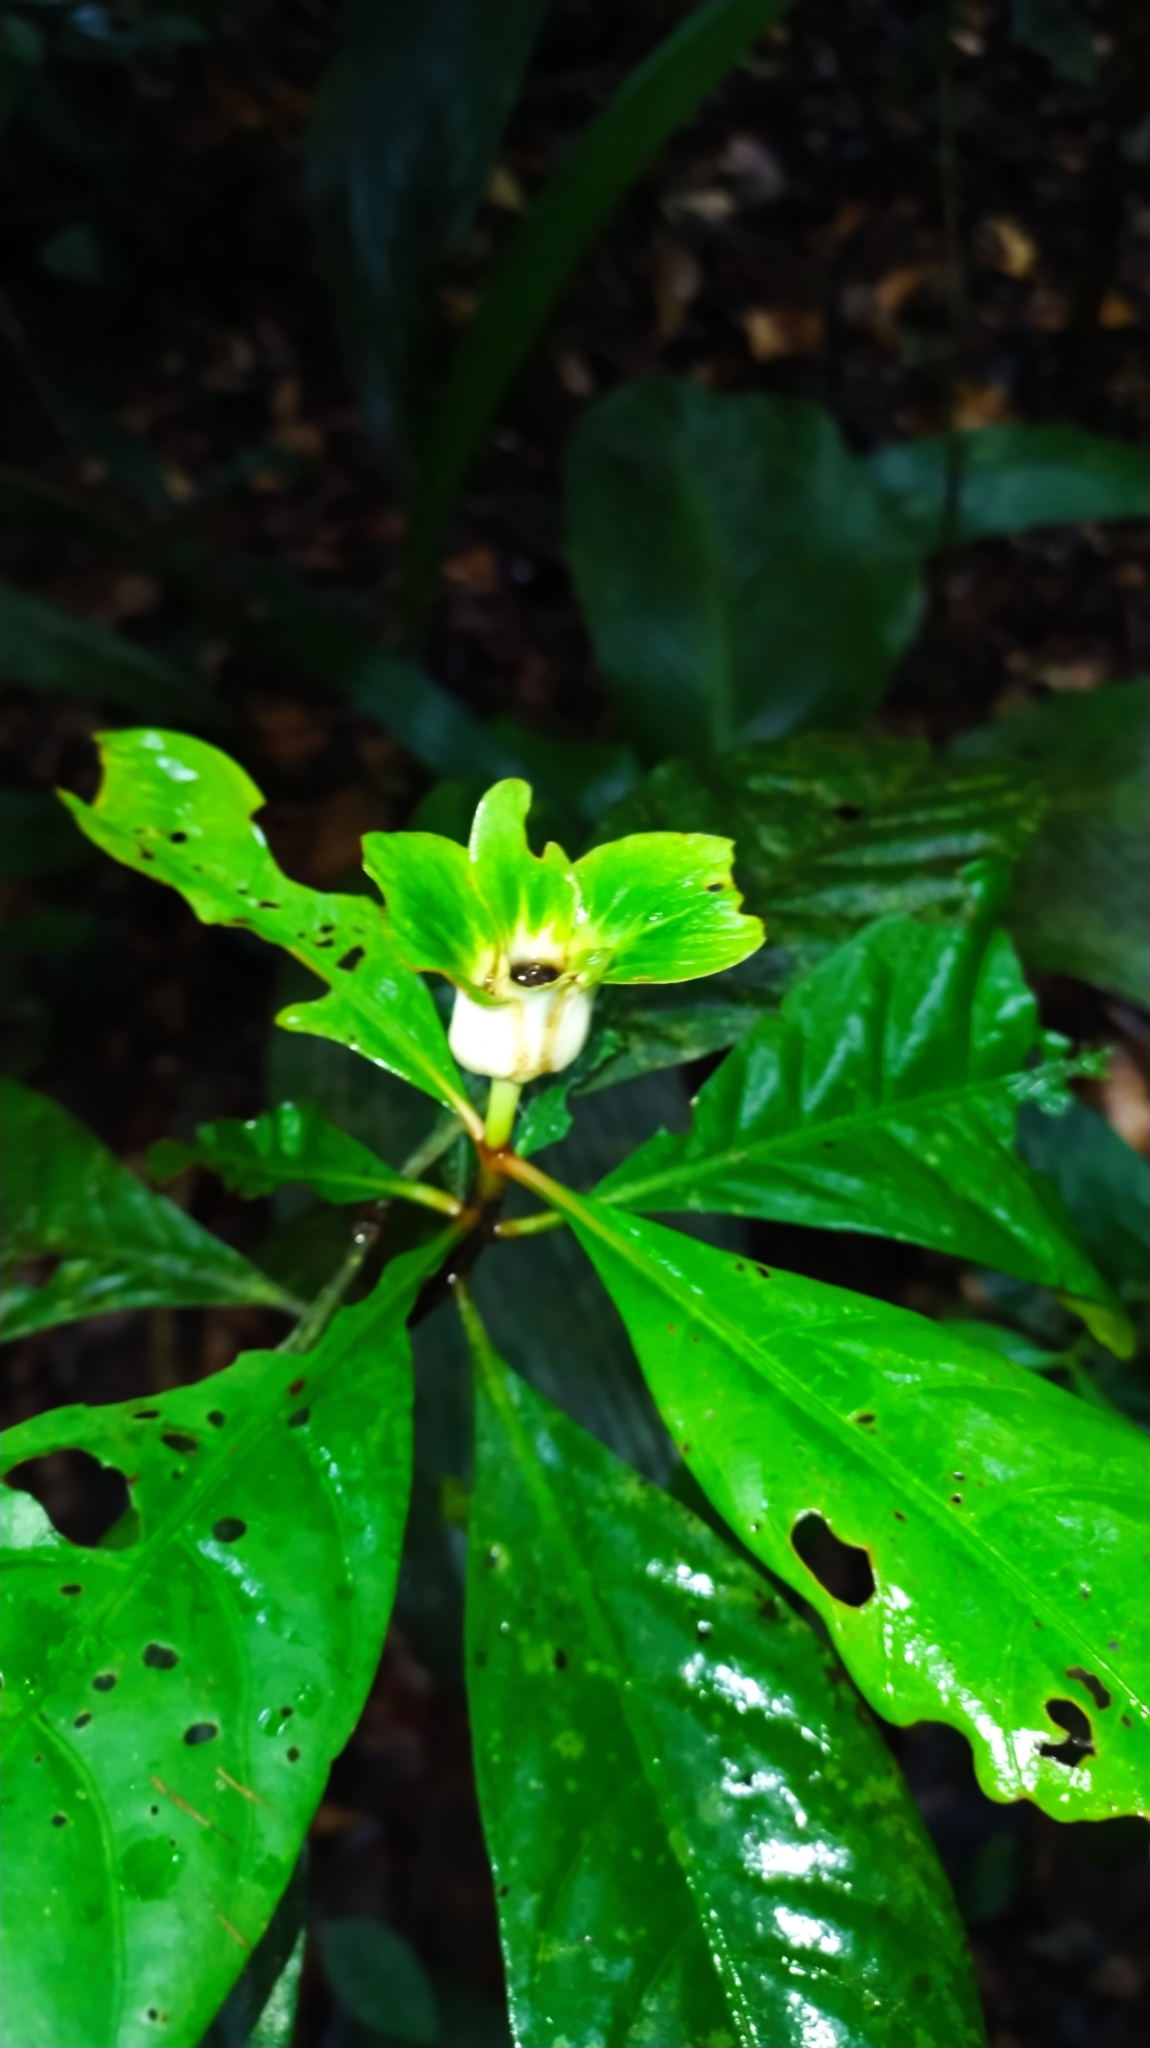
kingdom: Plantae
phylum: Tracheophyta
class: Magnoliopsida
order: Gentianales
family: Rubiaceae
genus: Carapichea
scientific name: Carapichea guianensis
